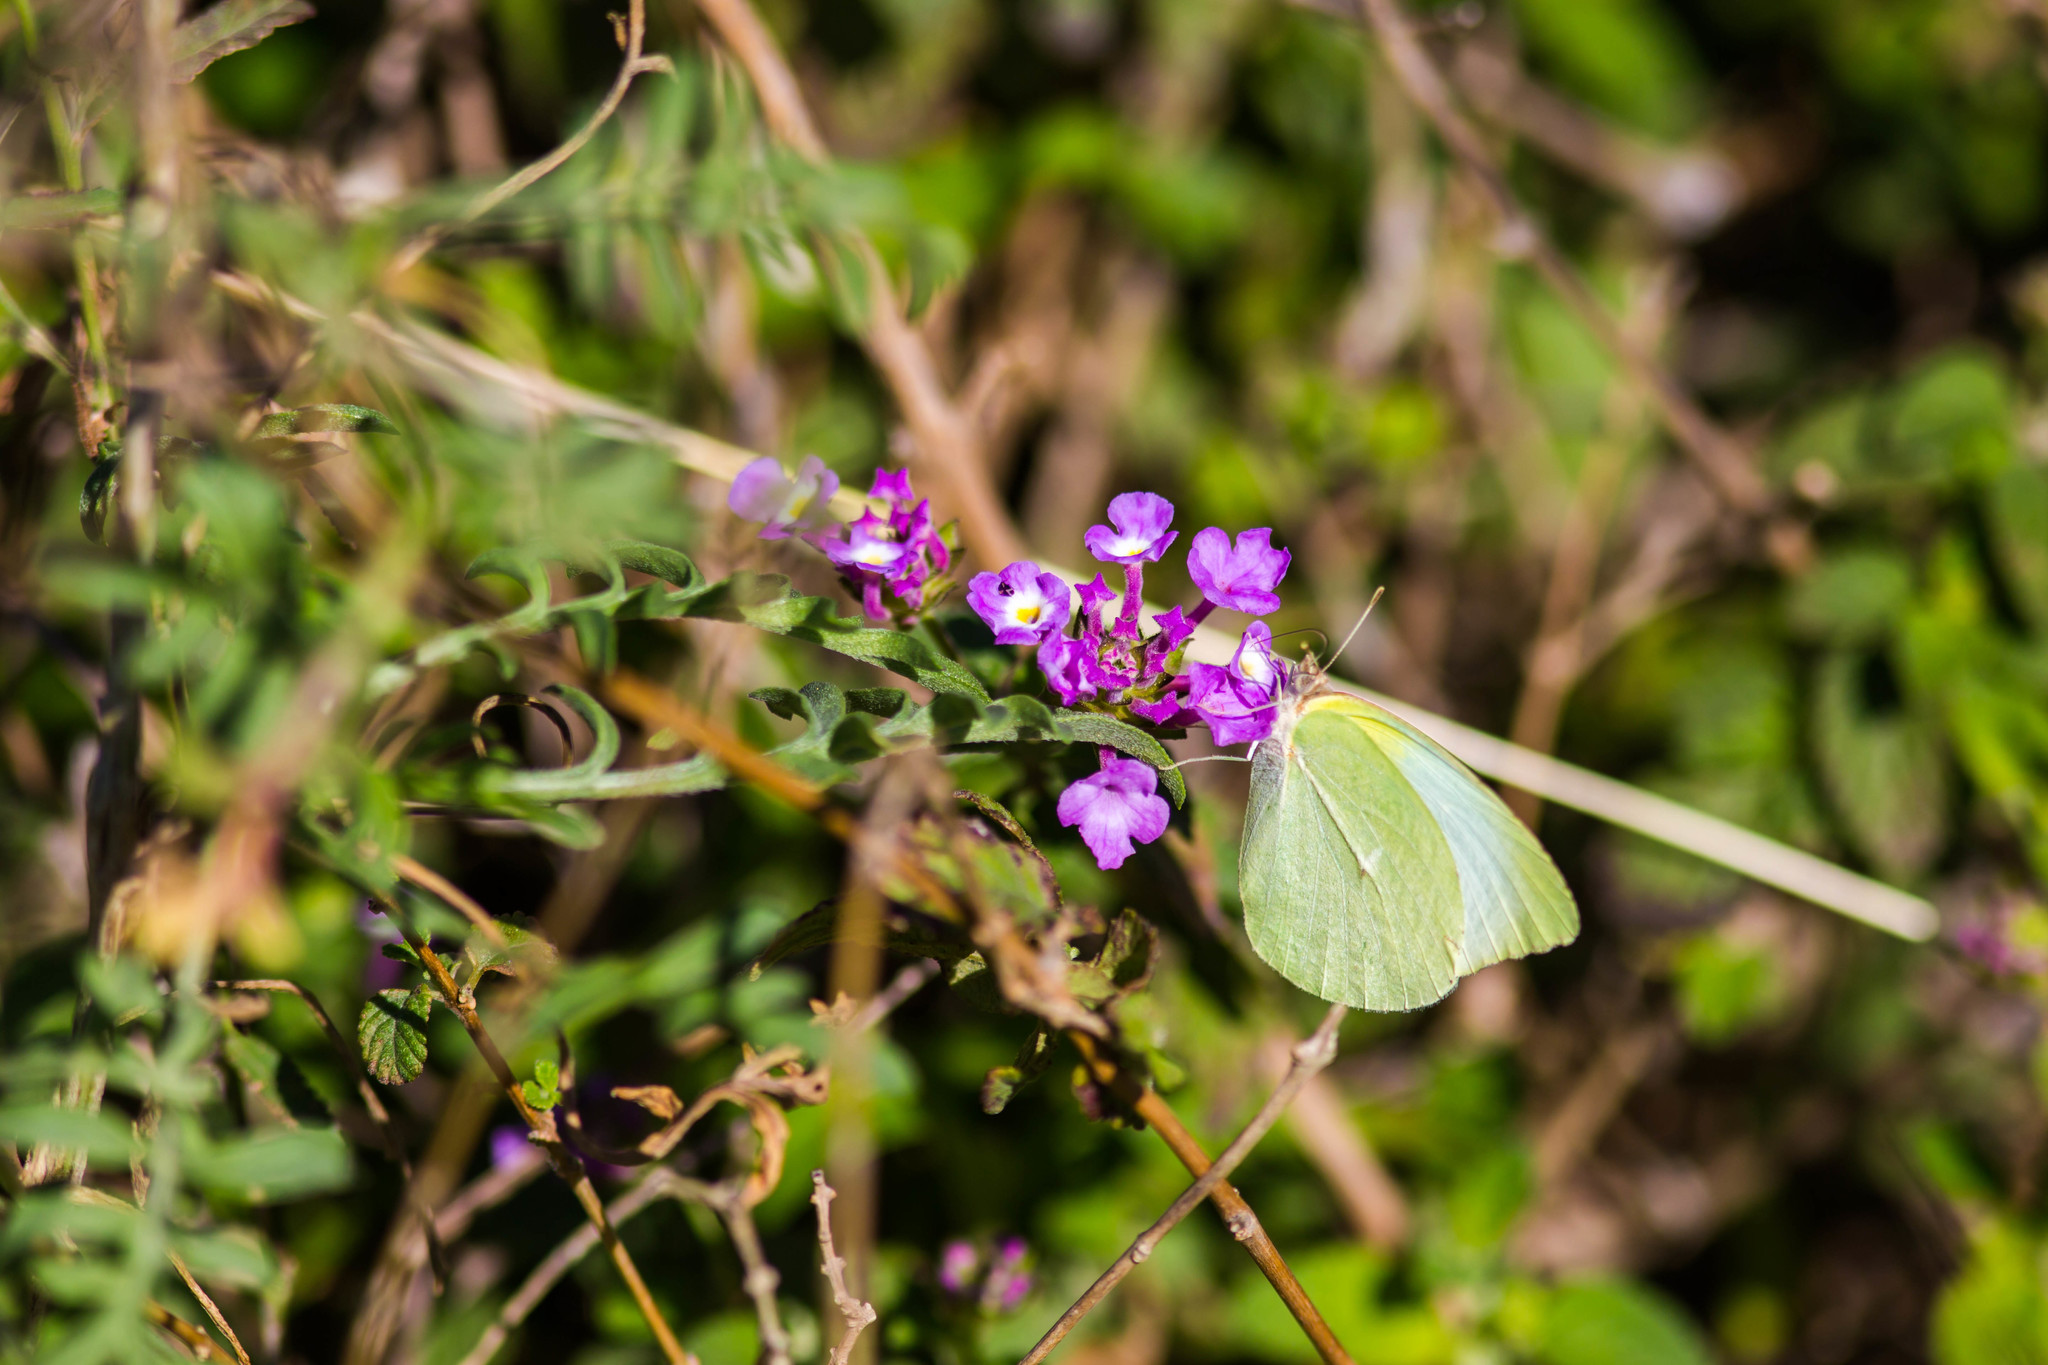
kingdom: Animalia
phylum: Arthropoda
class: Insecta
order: Lepidoptera
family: Pieridae
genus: Kricogonia
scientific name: Kricogonia lyside
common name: Guayacan sulphur,
